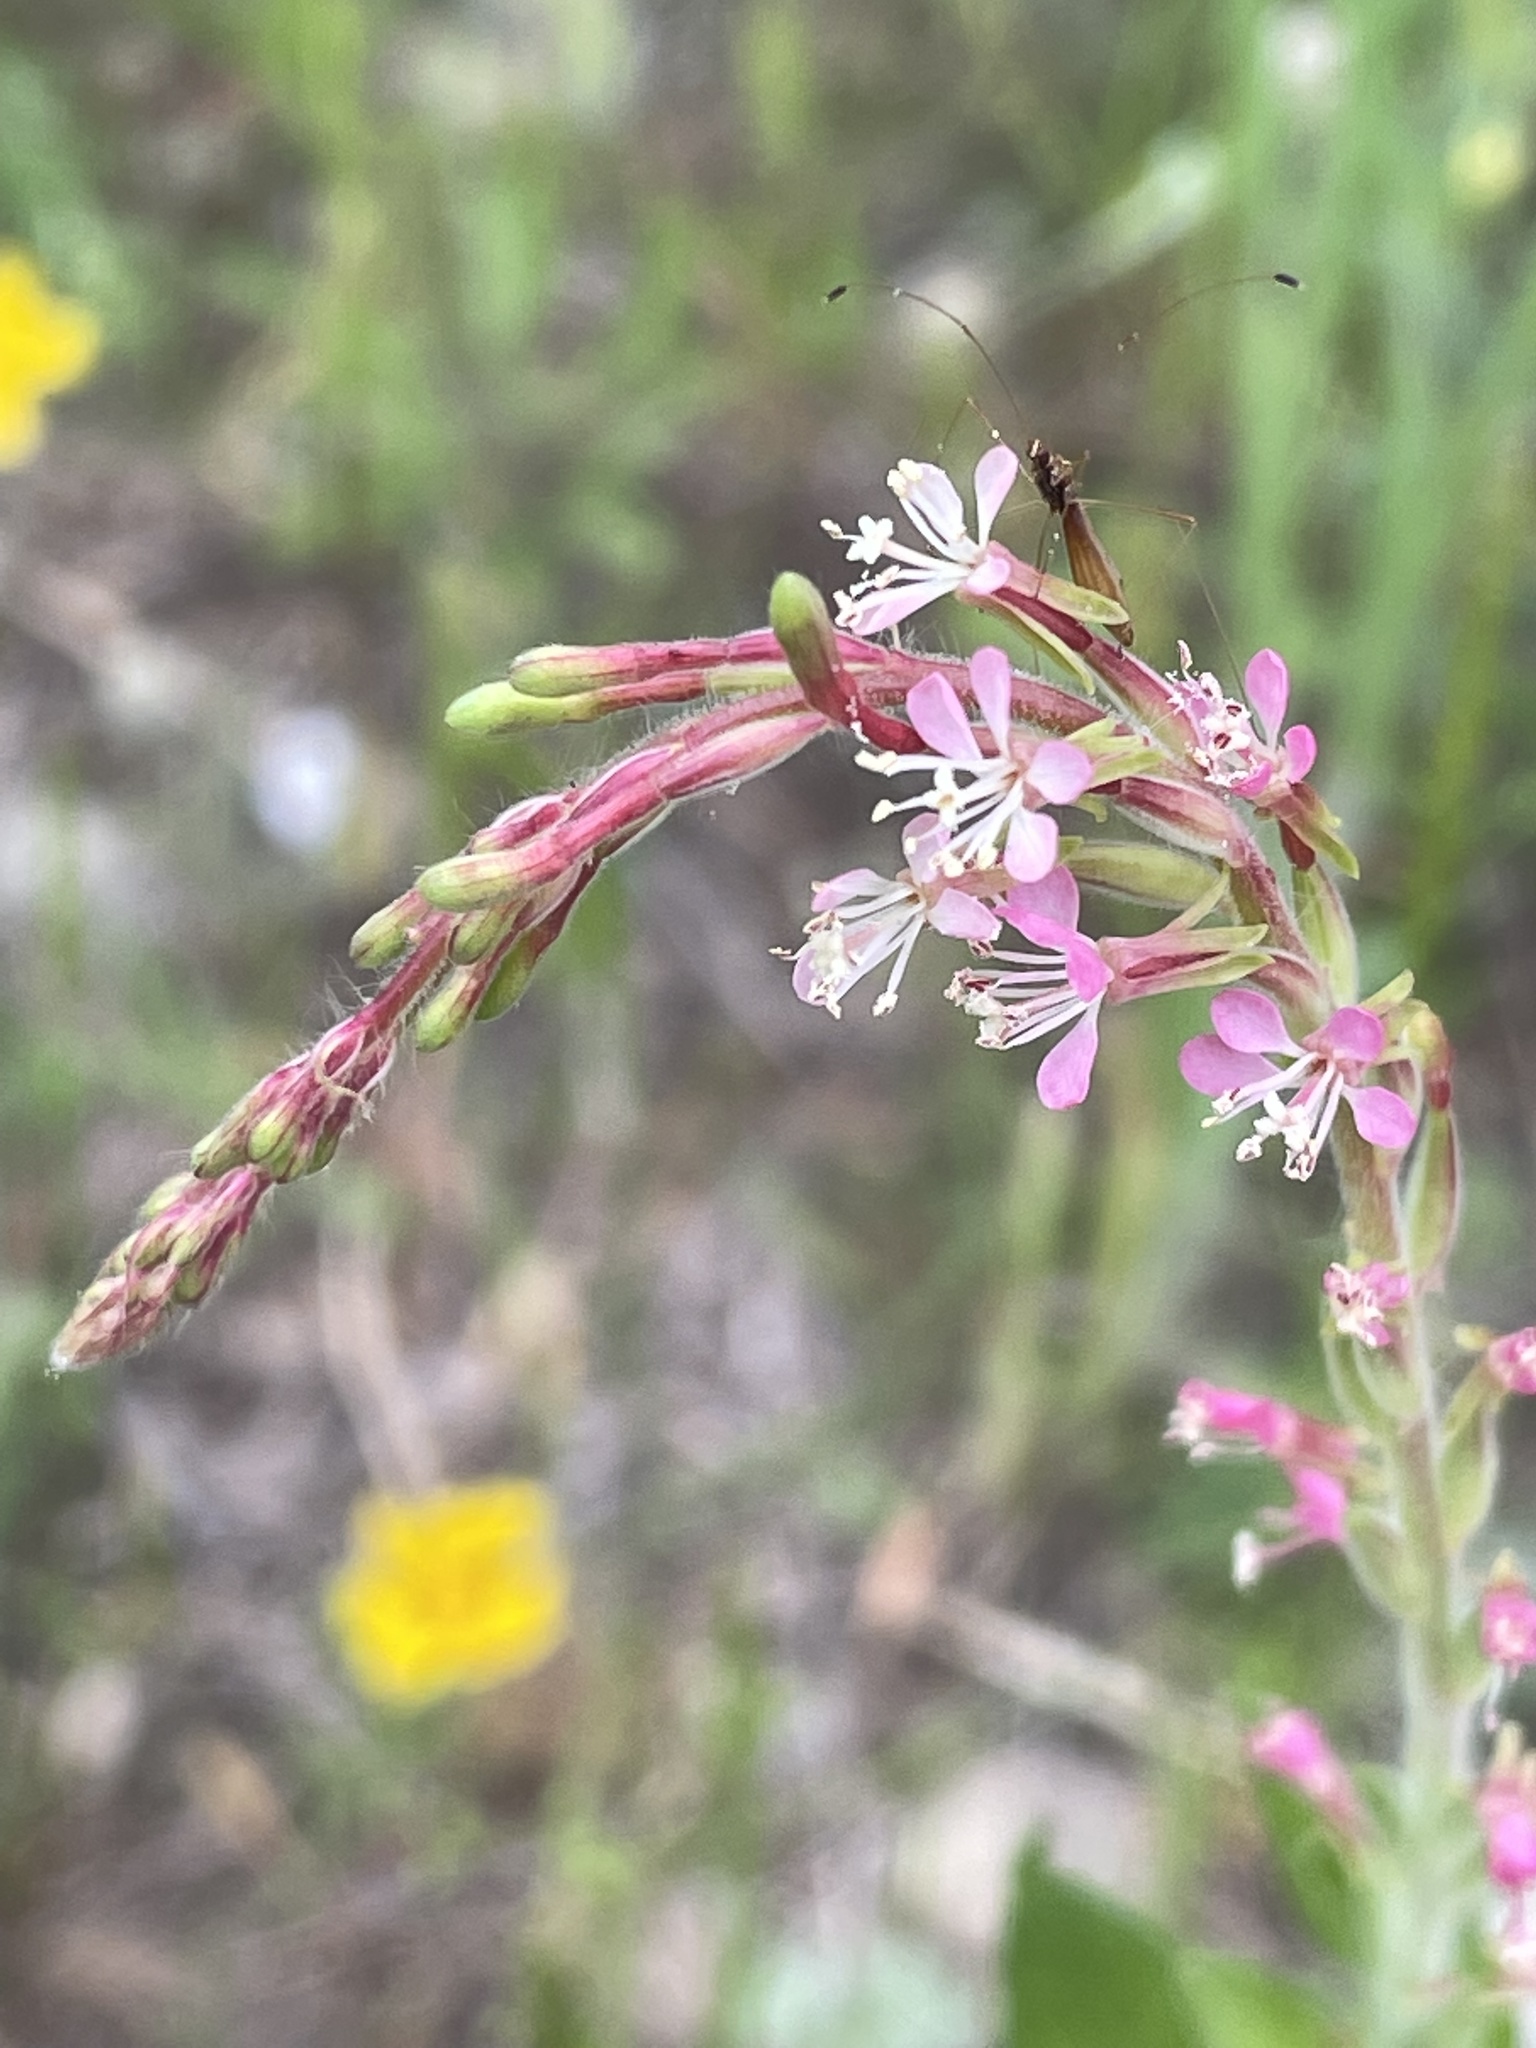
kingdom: Plantae
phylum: Tracheophyta
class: Magnoliopsida
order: Myrtales
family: Onagraceae
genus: Oenothera
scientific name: Oenothera curtiflora
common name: Velvetweed
